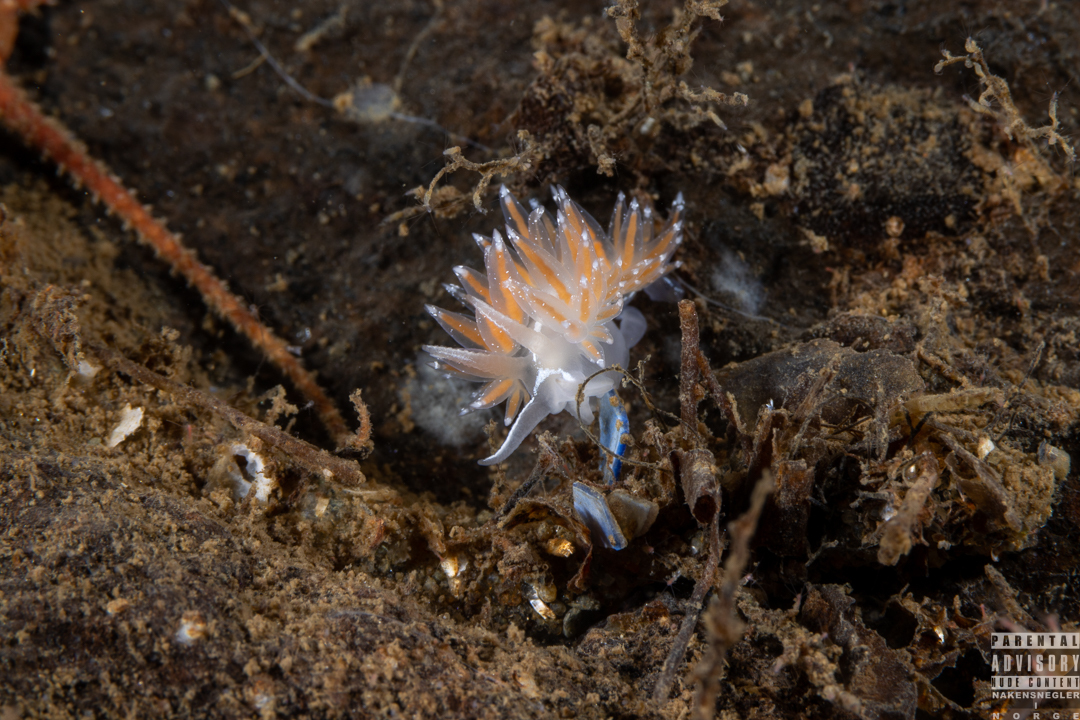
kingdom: Animalia
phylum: Mollusca
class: Gastropoda
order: Nudibranchia
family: Coryphellidae
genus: Coryphella
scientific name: Coryphella monicae
